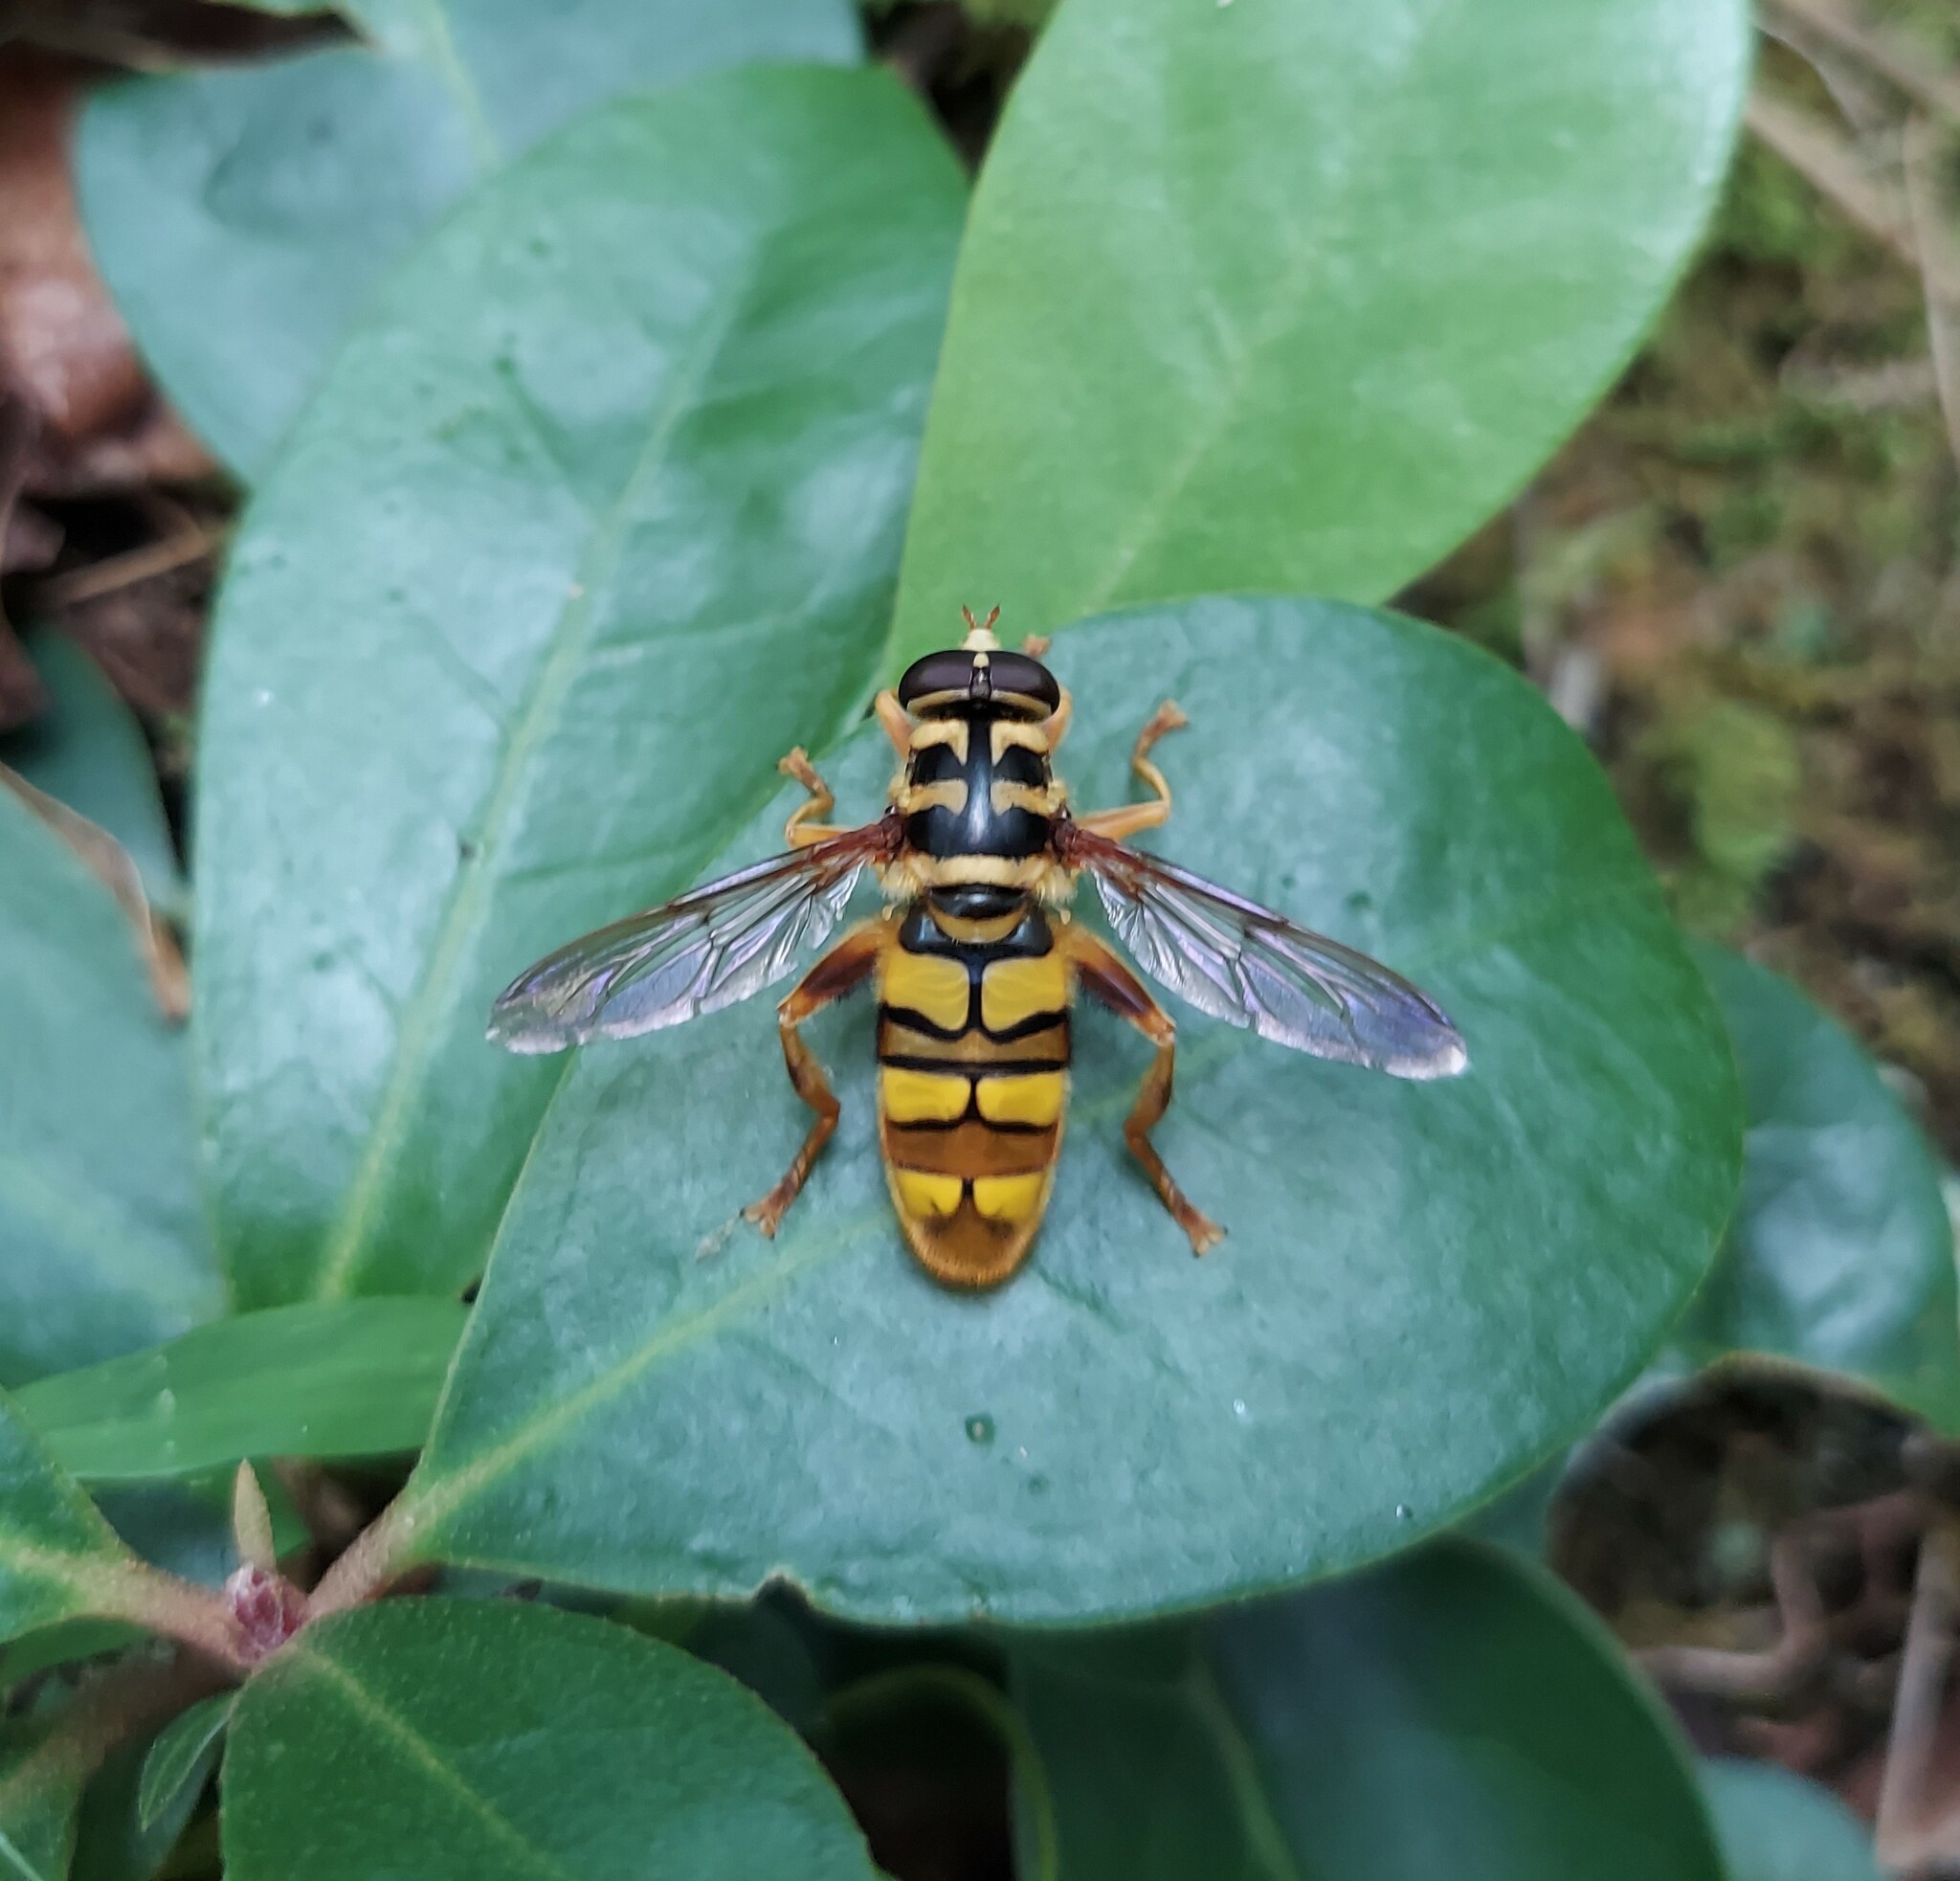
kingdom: Animalia
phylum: Arthropoda
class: Insecta
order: Diptera
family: Syrphidae
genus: Milesia
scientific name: Milesia virginiensis
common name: Virginia giant
